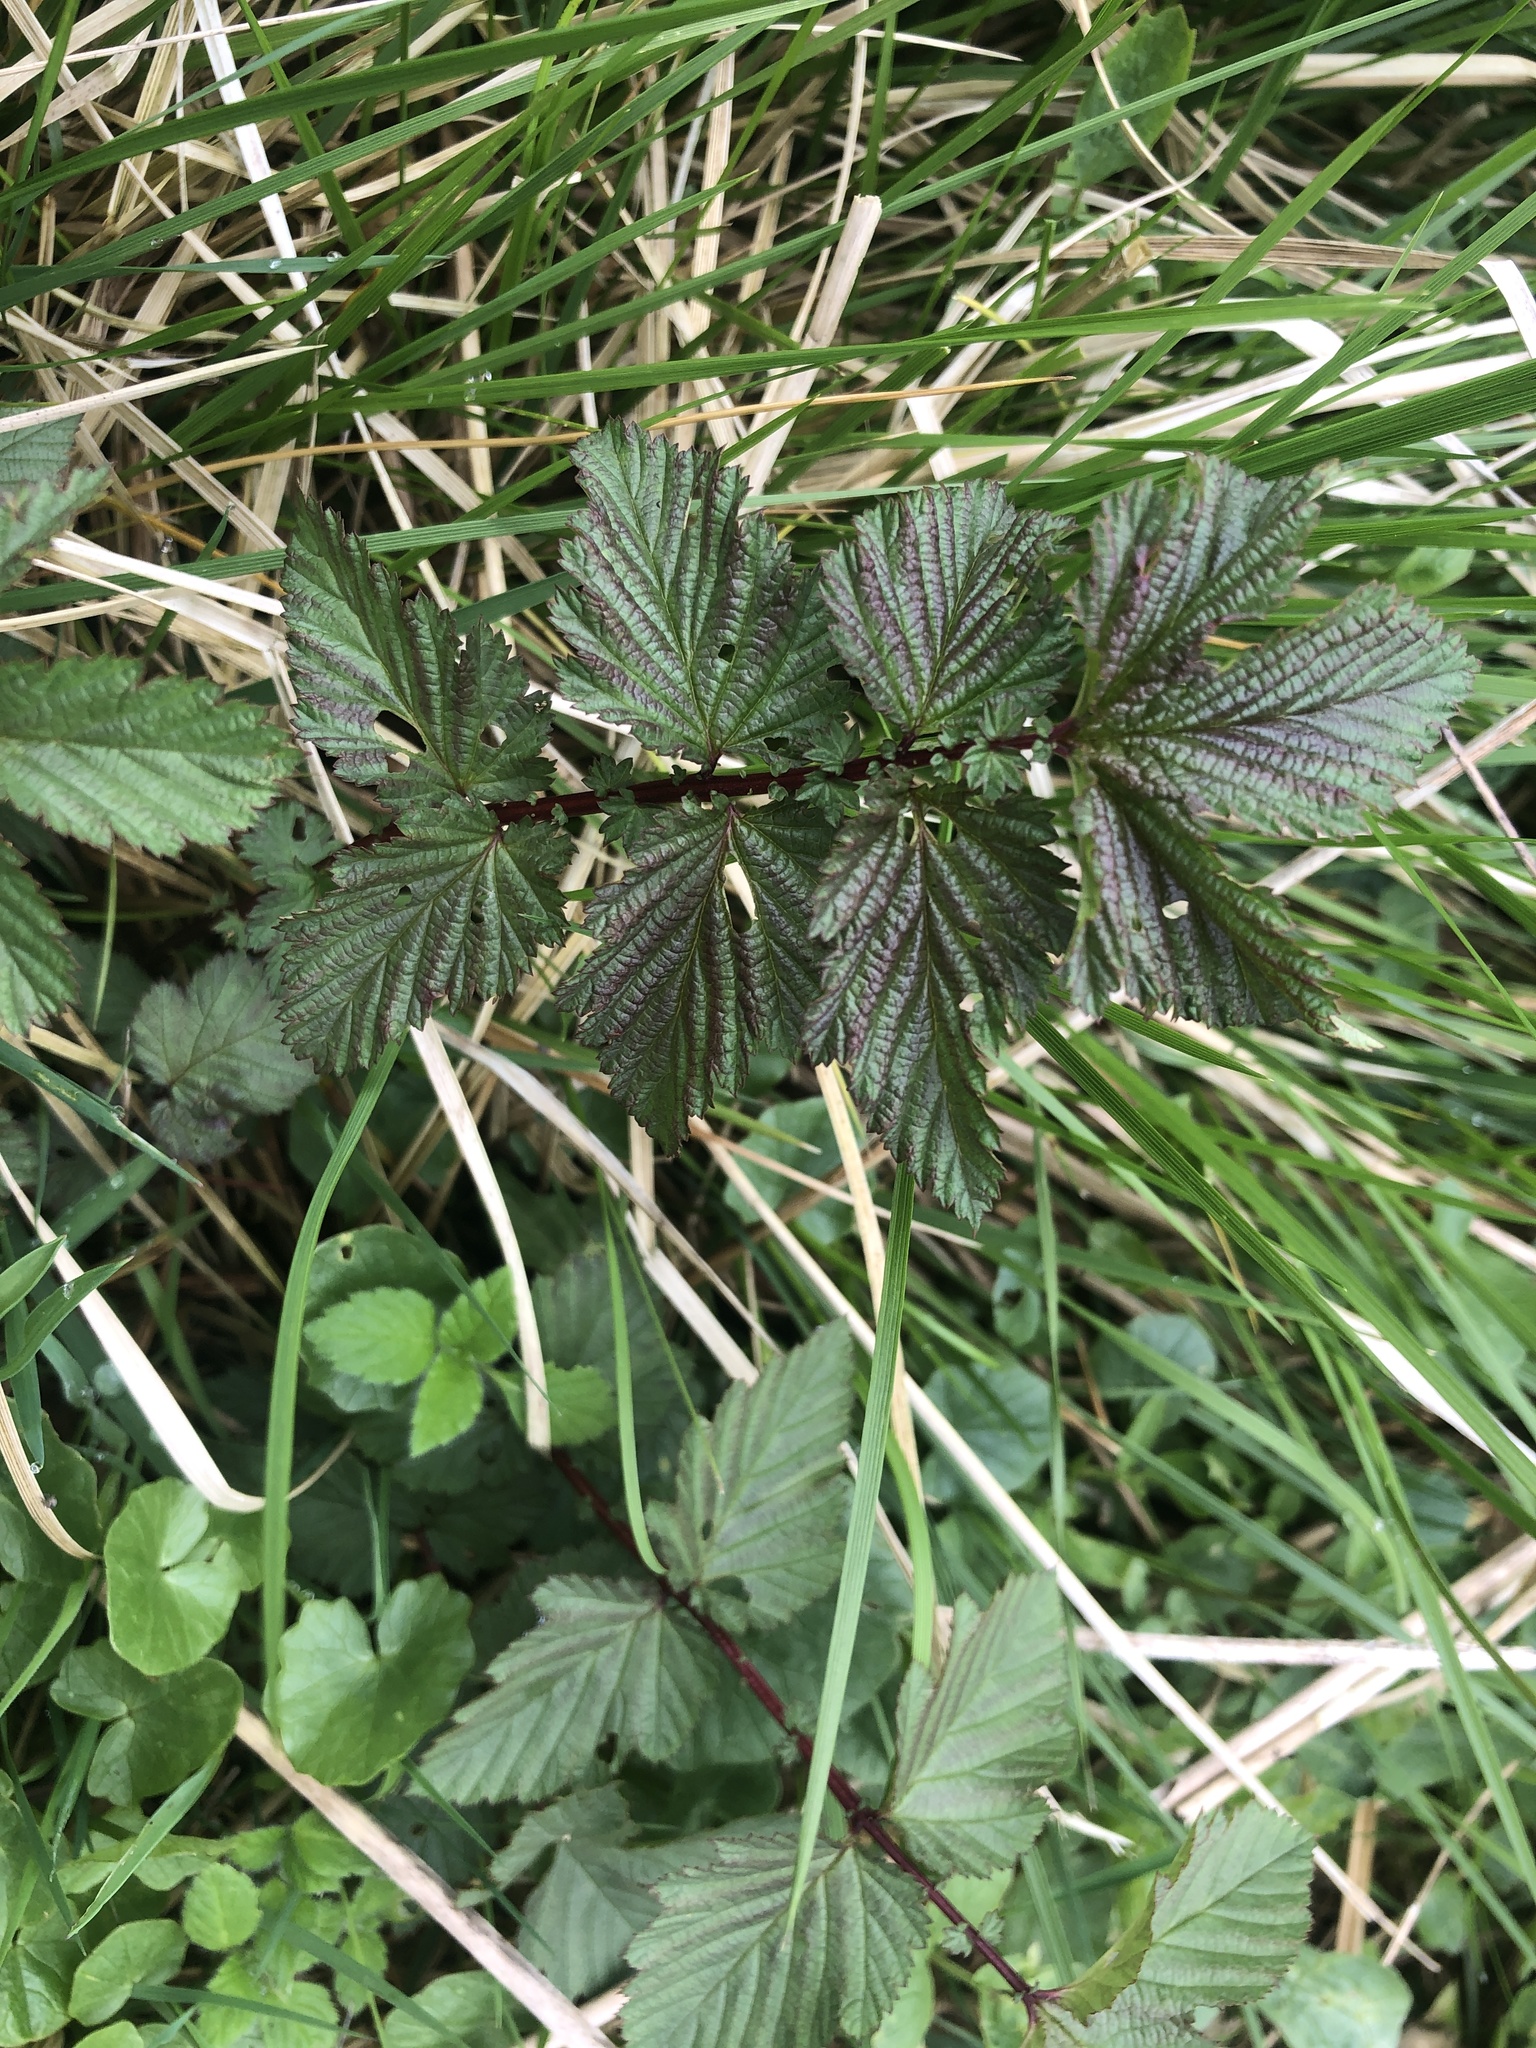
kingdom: Plantae
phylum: Tracheophyta
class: Magnoliopsida
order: Rosales
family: Rosaceae
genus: Filipendula
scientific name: Filipendula ulmaria
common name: Meadowsweet
